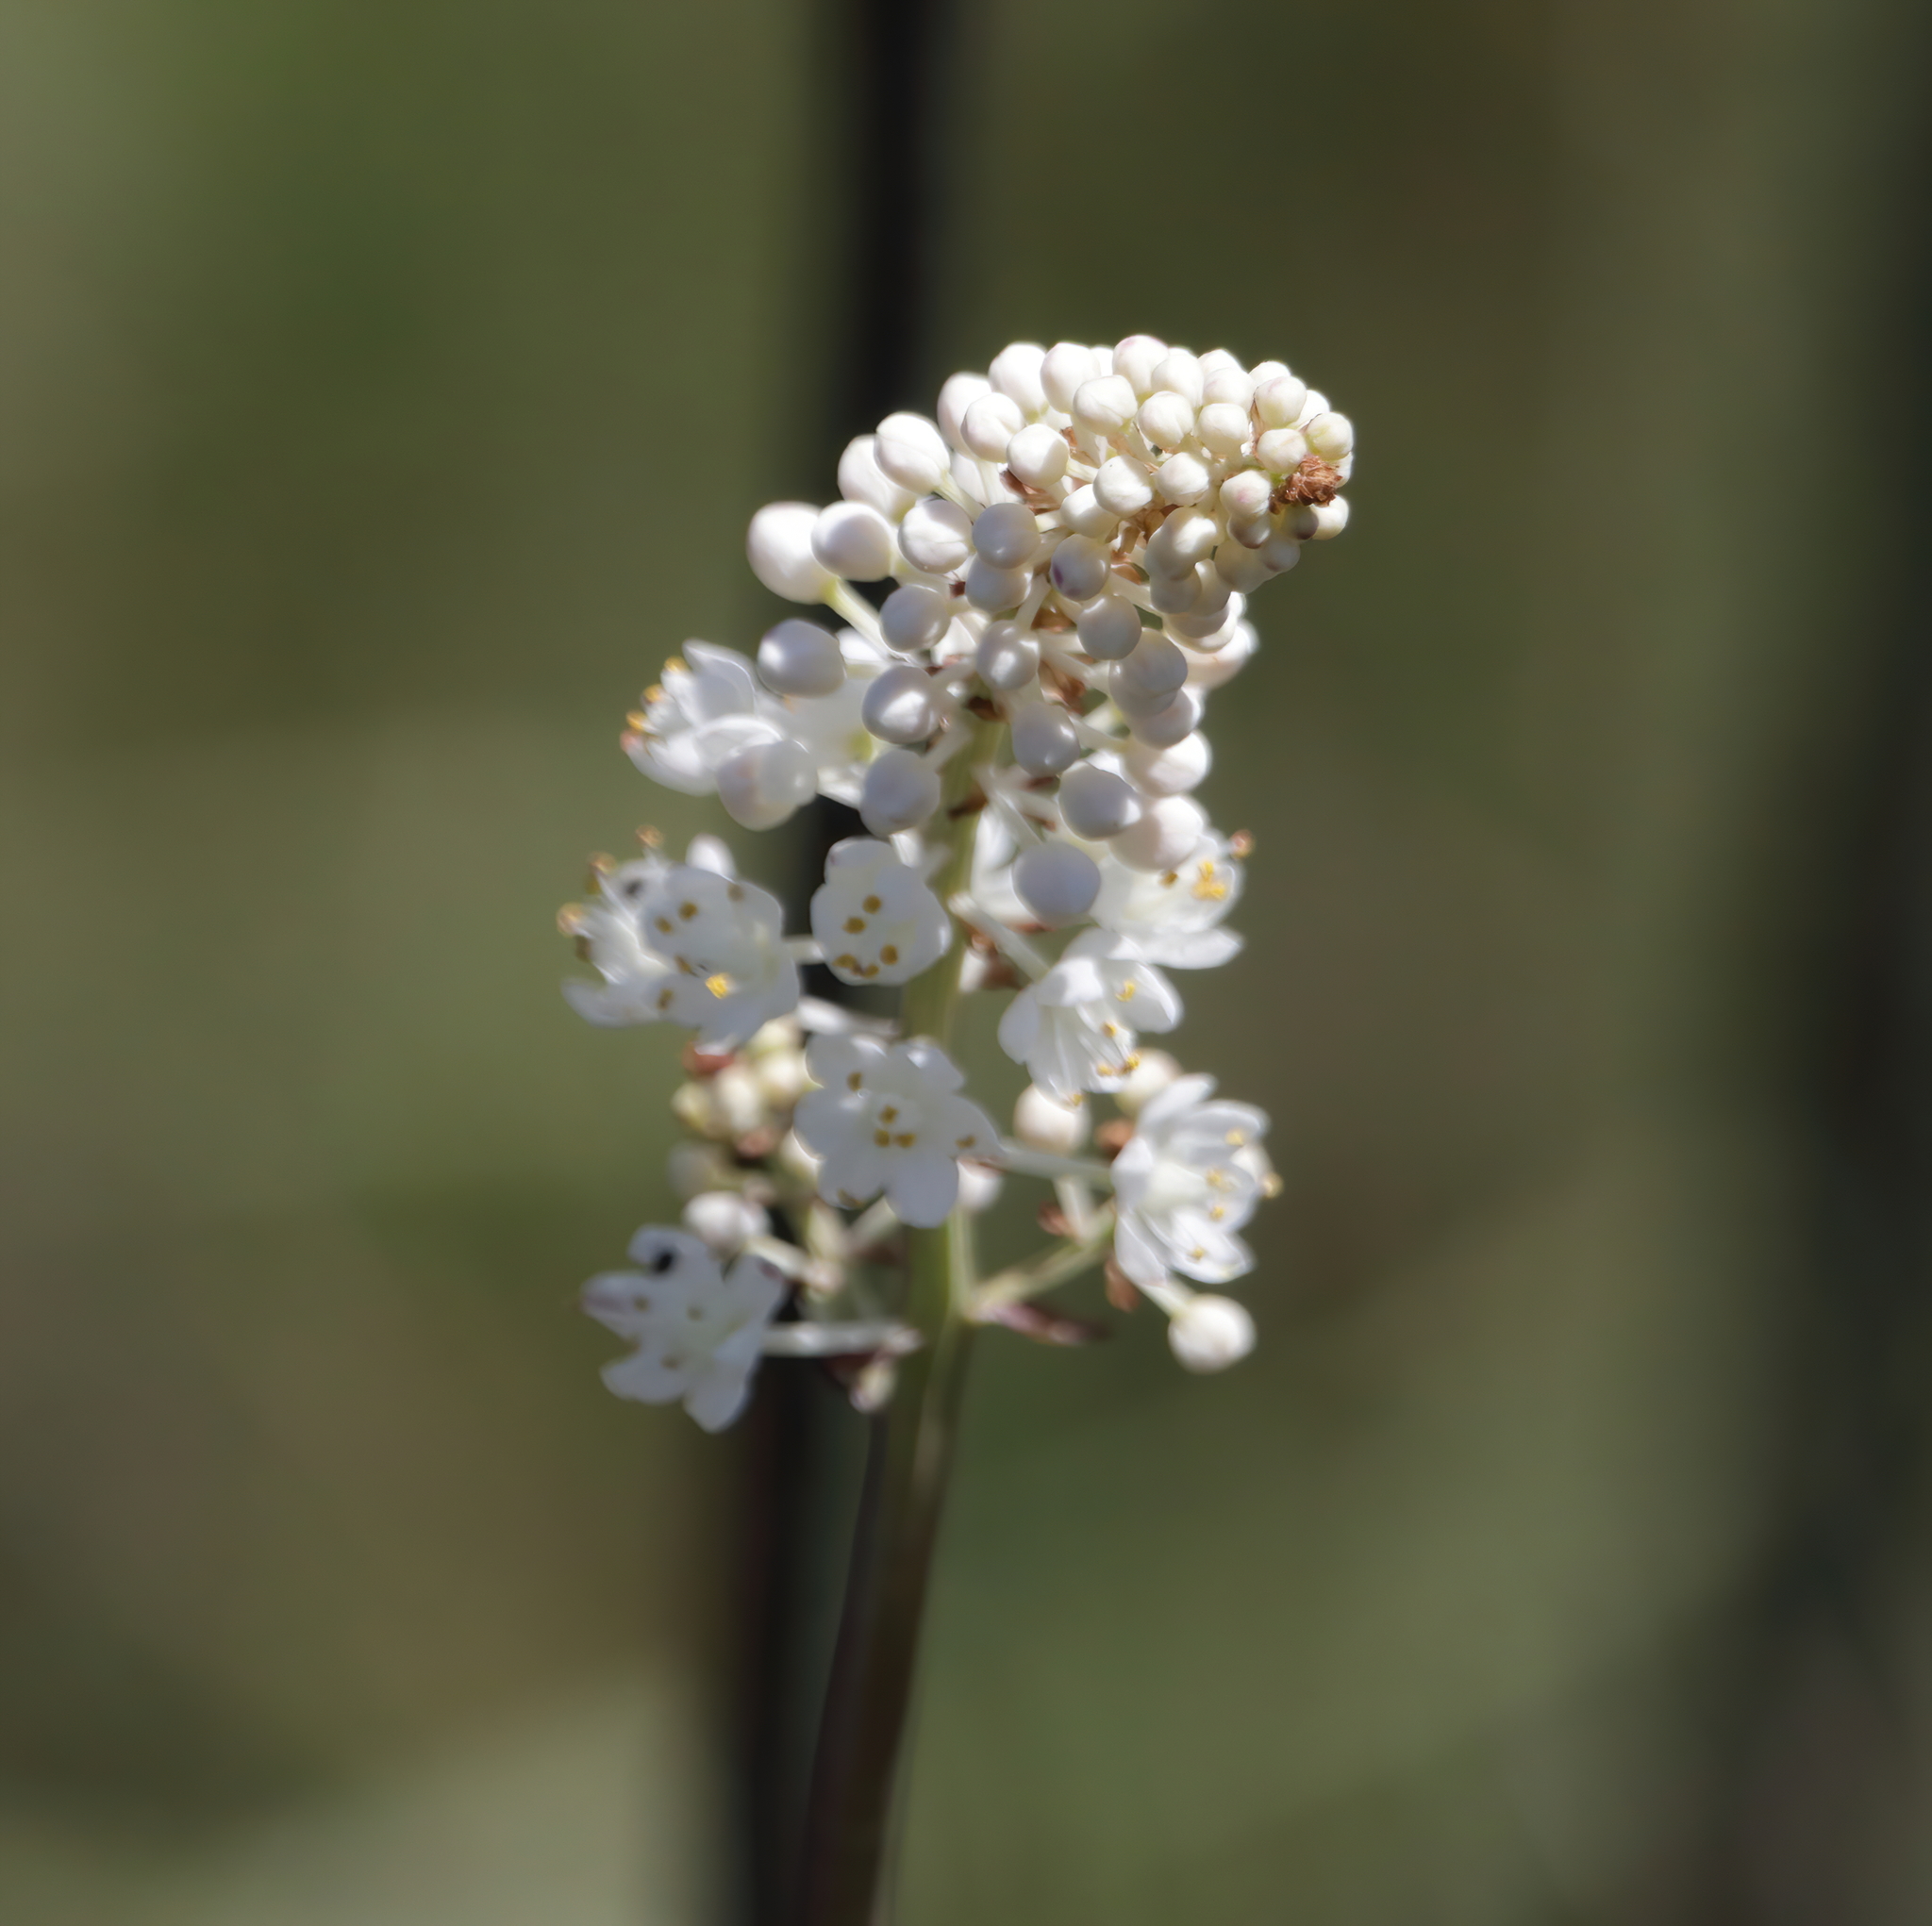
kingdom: Plantae
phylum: Tracheophyta
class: Liliopsida
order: Liliales
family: Melanthiaceae
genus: Stenanthium
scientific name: Stenanthium densum
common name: Crow-poison
